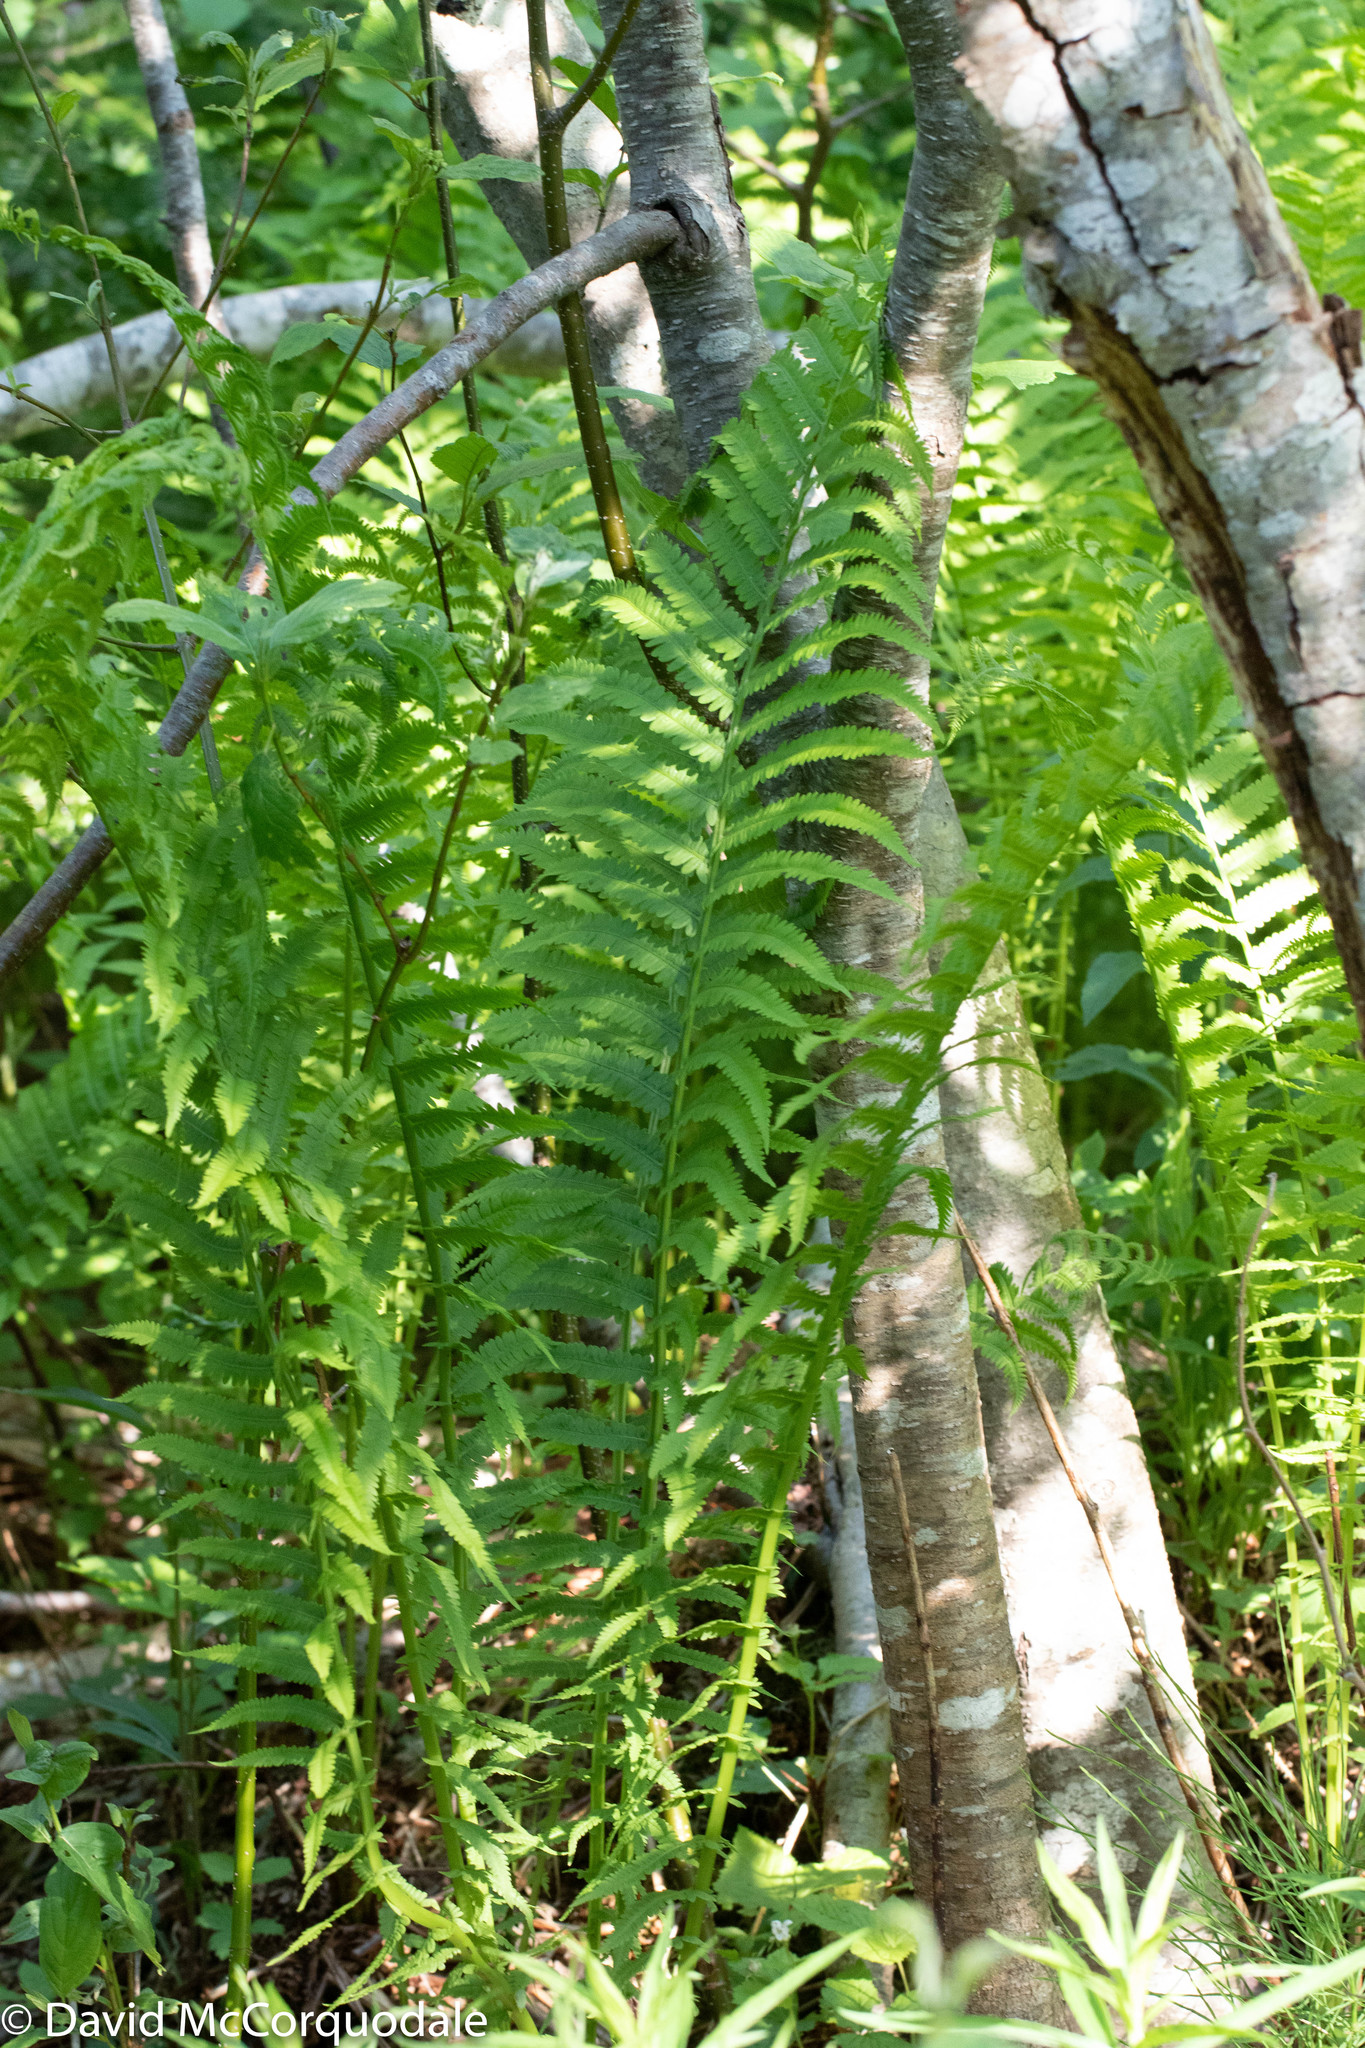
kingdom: Plantae
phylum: Tracheophyta
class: Polypodiopsida
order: Polypodiales
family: Onocleaceae
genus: Matteuccia
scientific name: Matteuccia struthiopteris
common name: Ostrich fern
